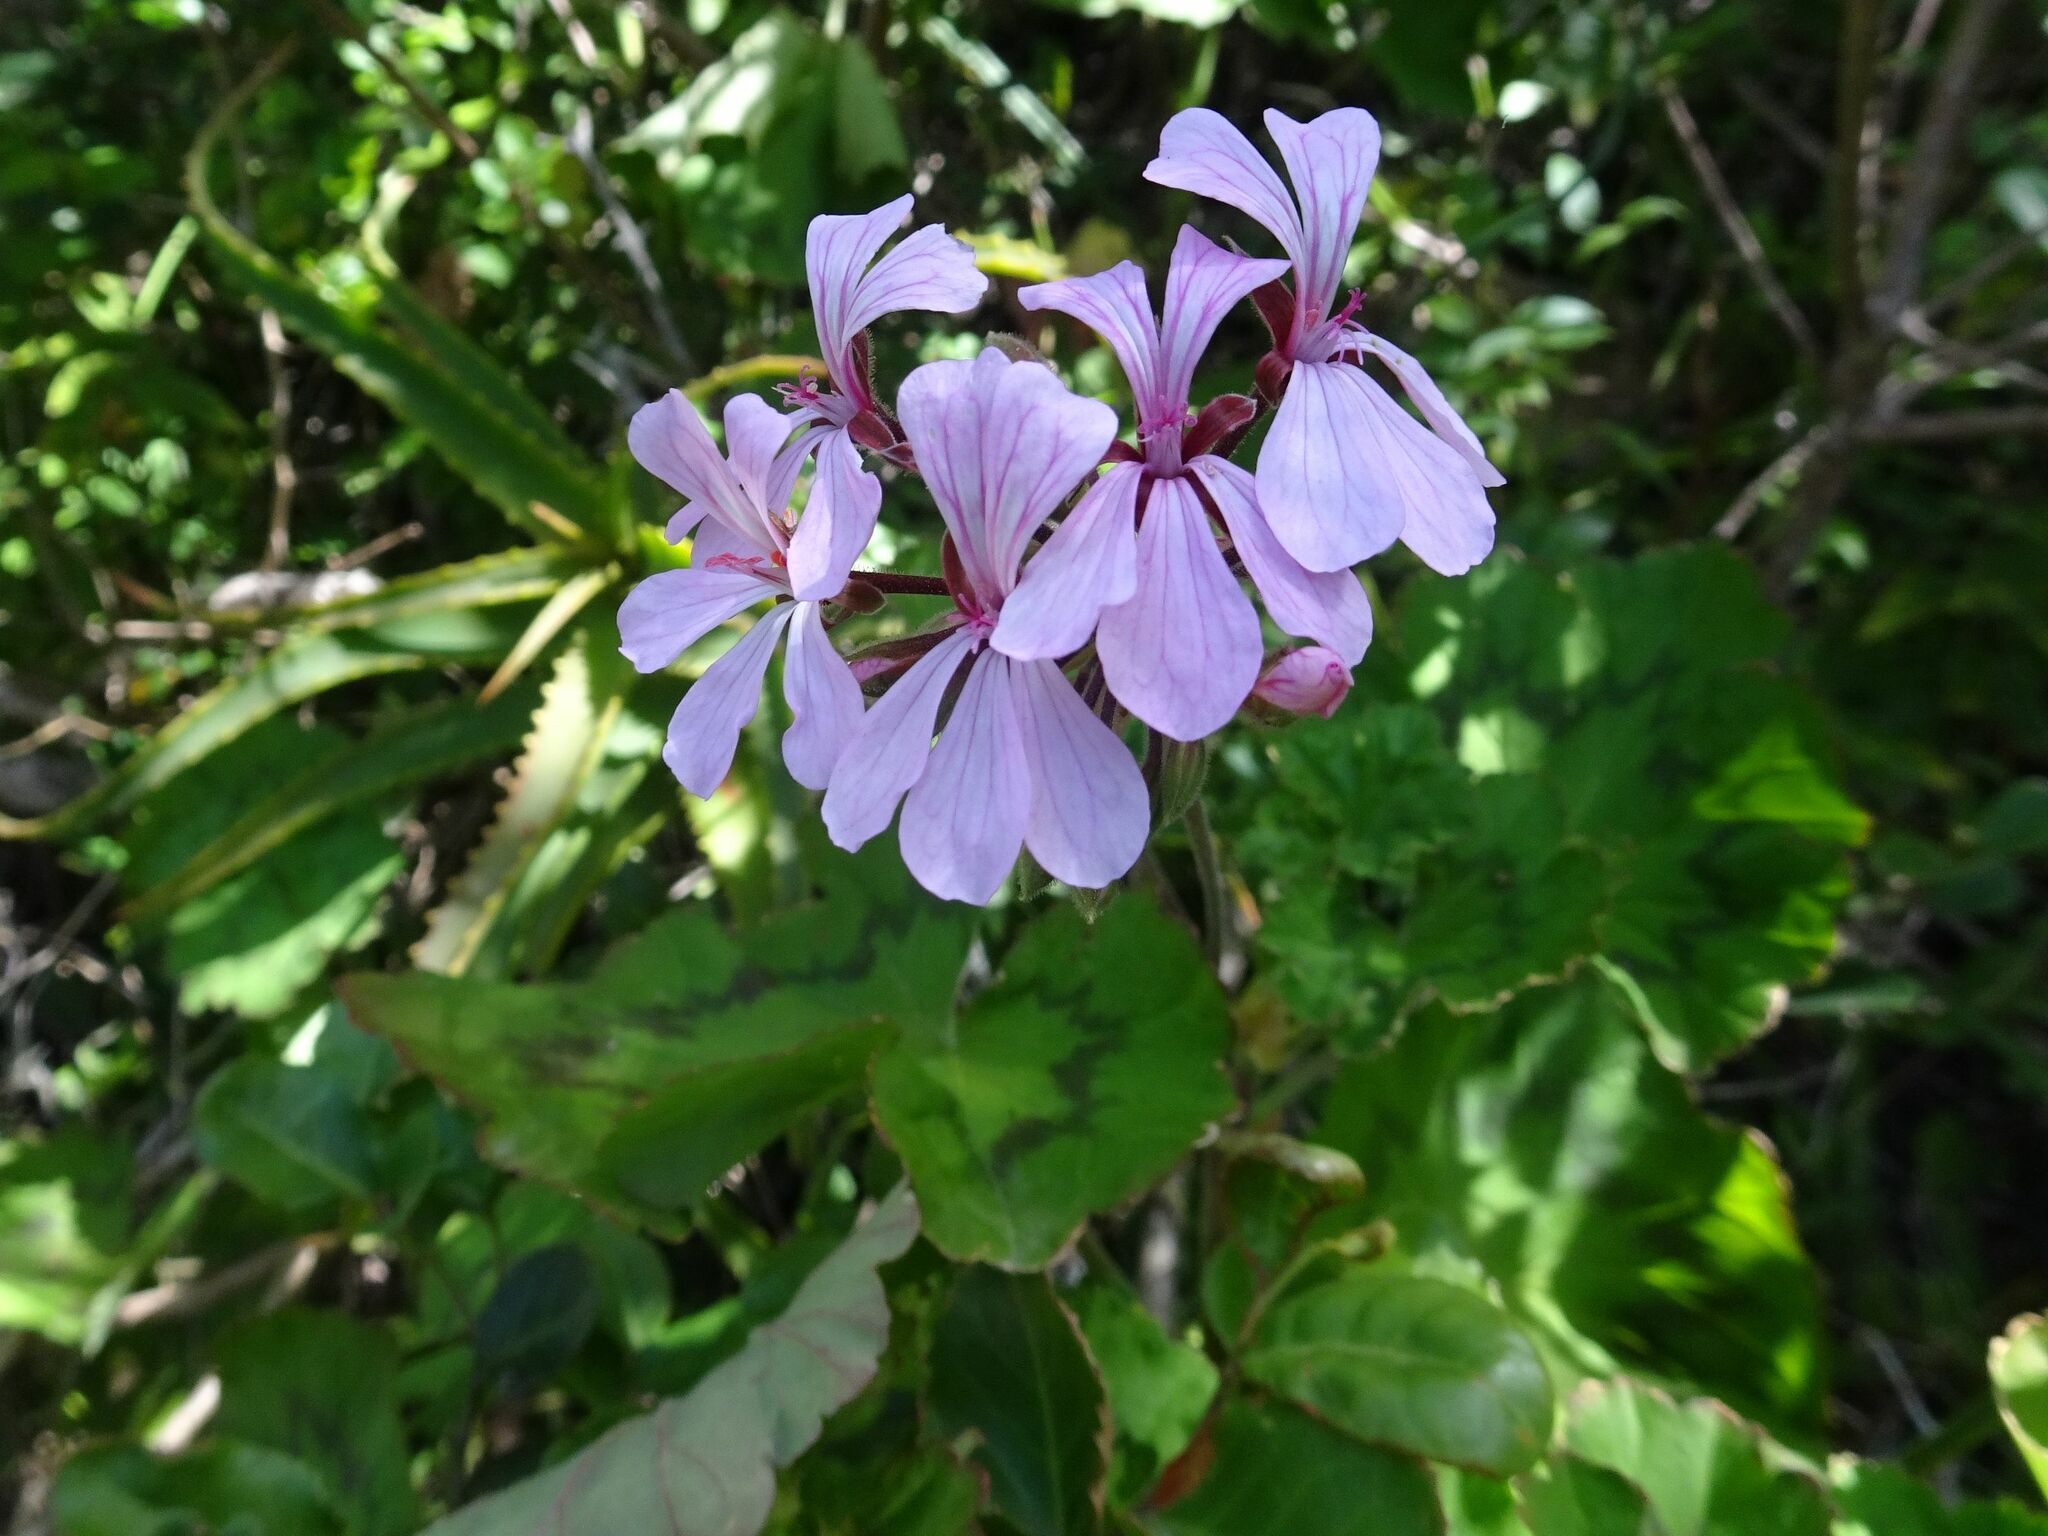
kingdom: Plantae
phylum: Tracheophyta
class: Magnoliopsida
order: Geraniales
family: Geraniaceae
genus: Pelargonium
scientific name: Pelargonium zonale
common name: Horseshoe geranium
